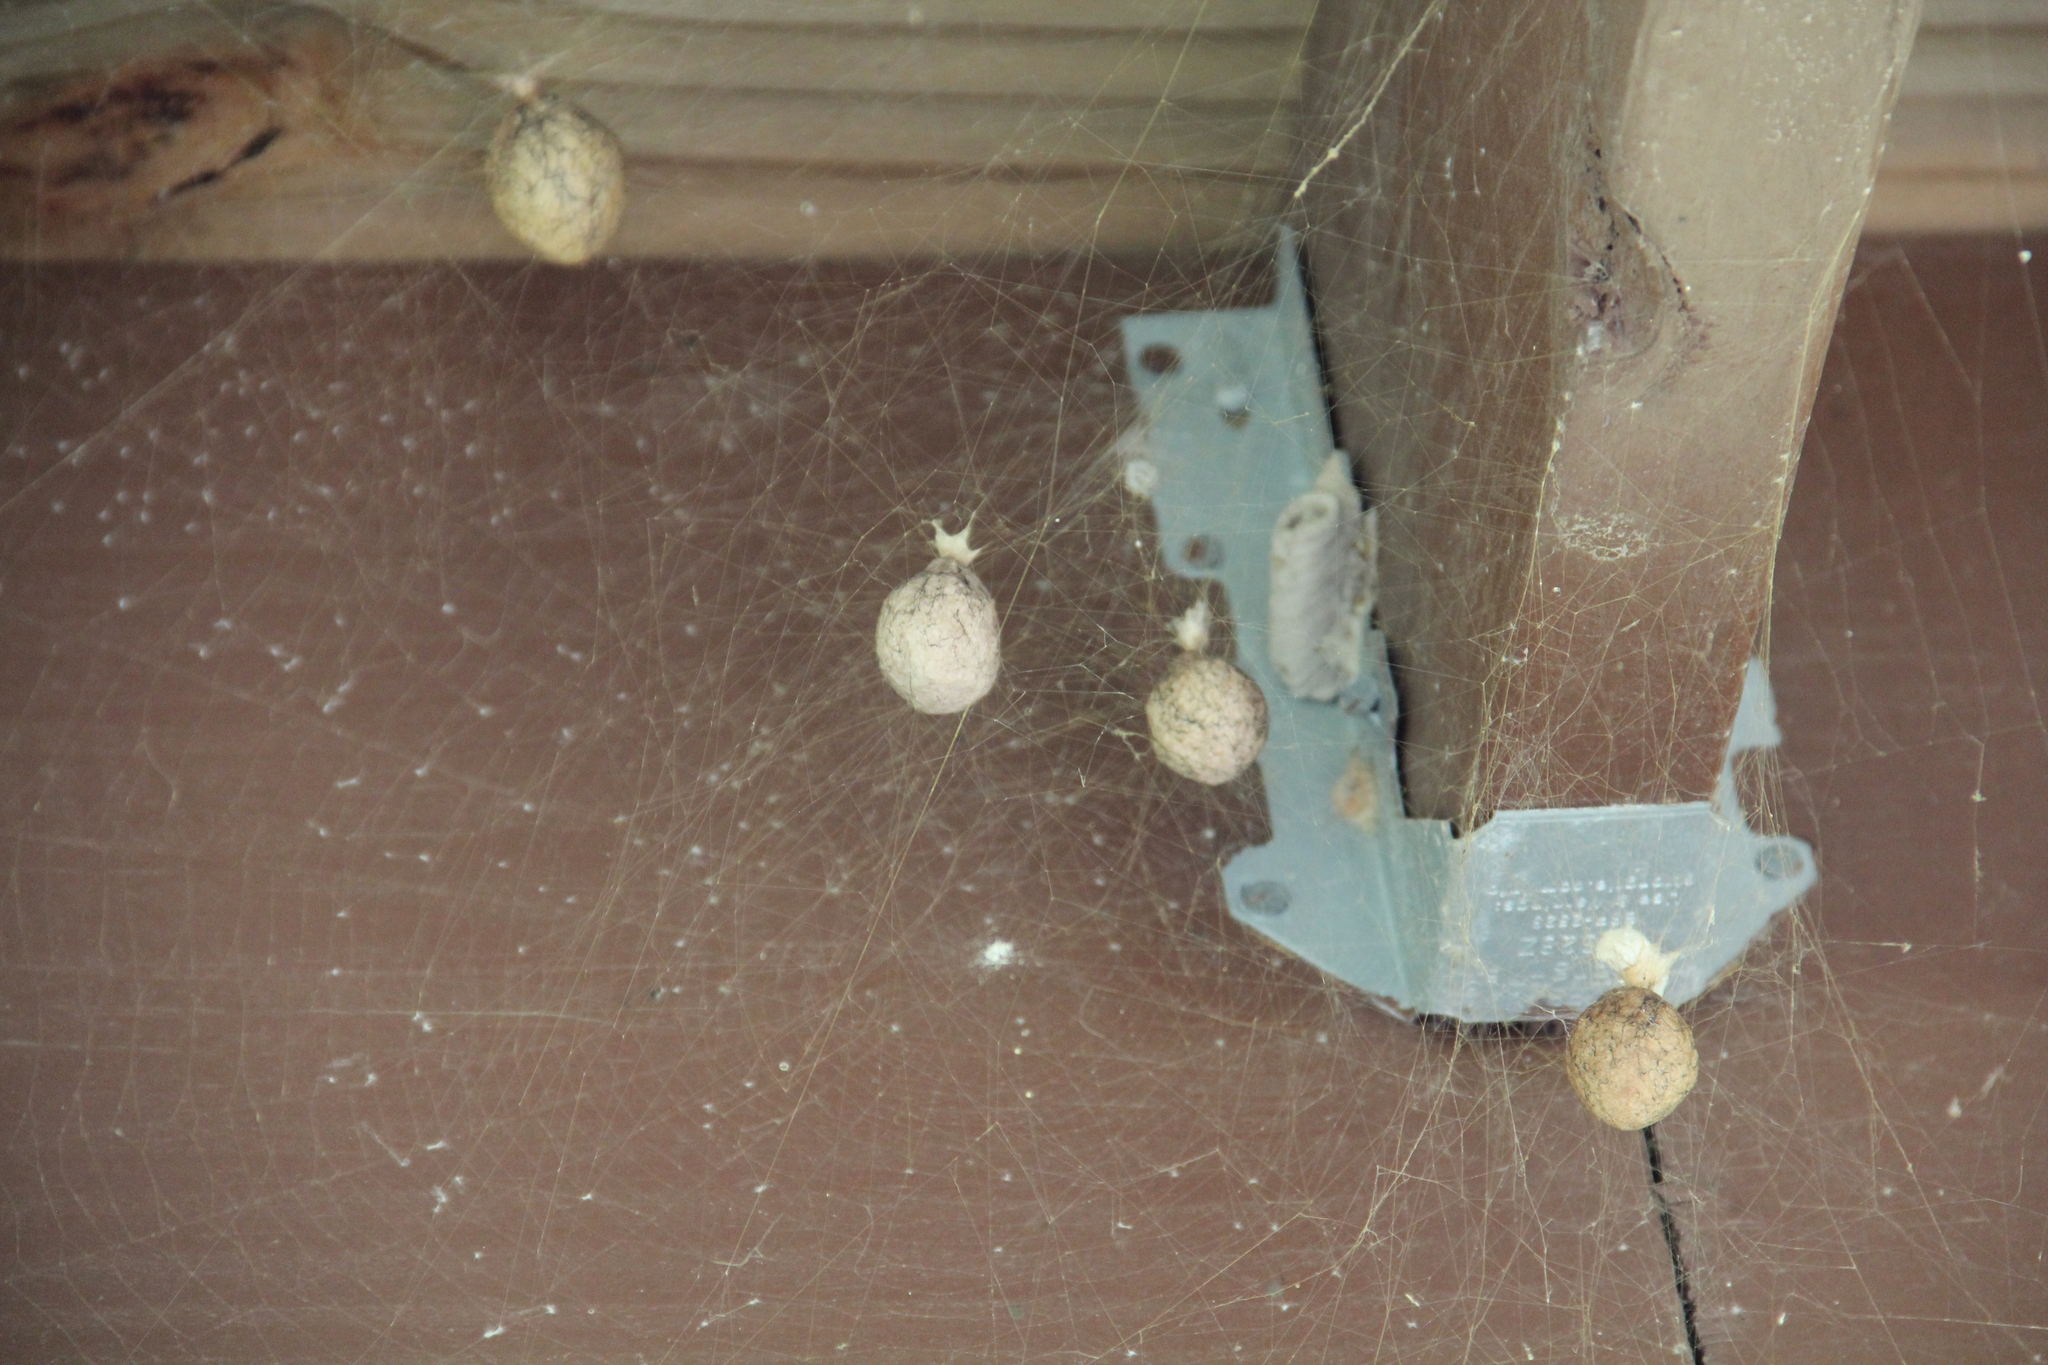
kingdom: Animalia
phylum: Arthropoda
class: Arachnida
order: Araneae
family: Araneidae
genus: Argiope
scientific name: Argiope aurantia
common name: Orb weavers
